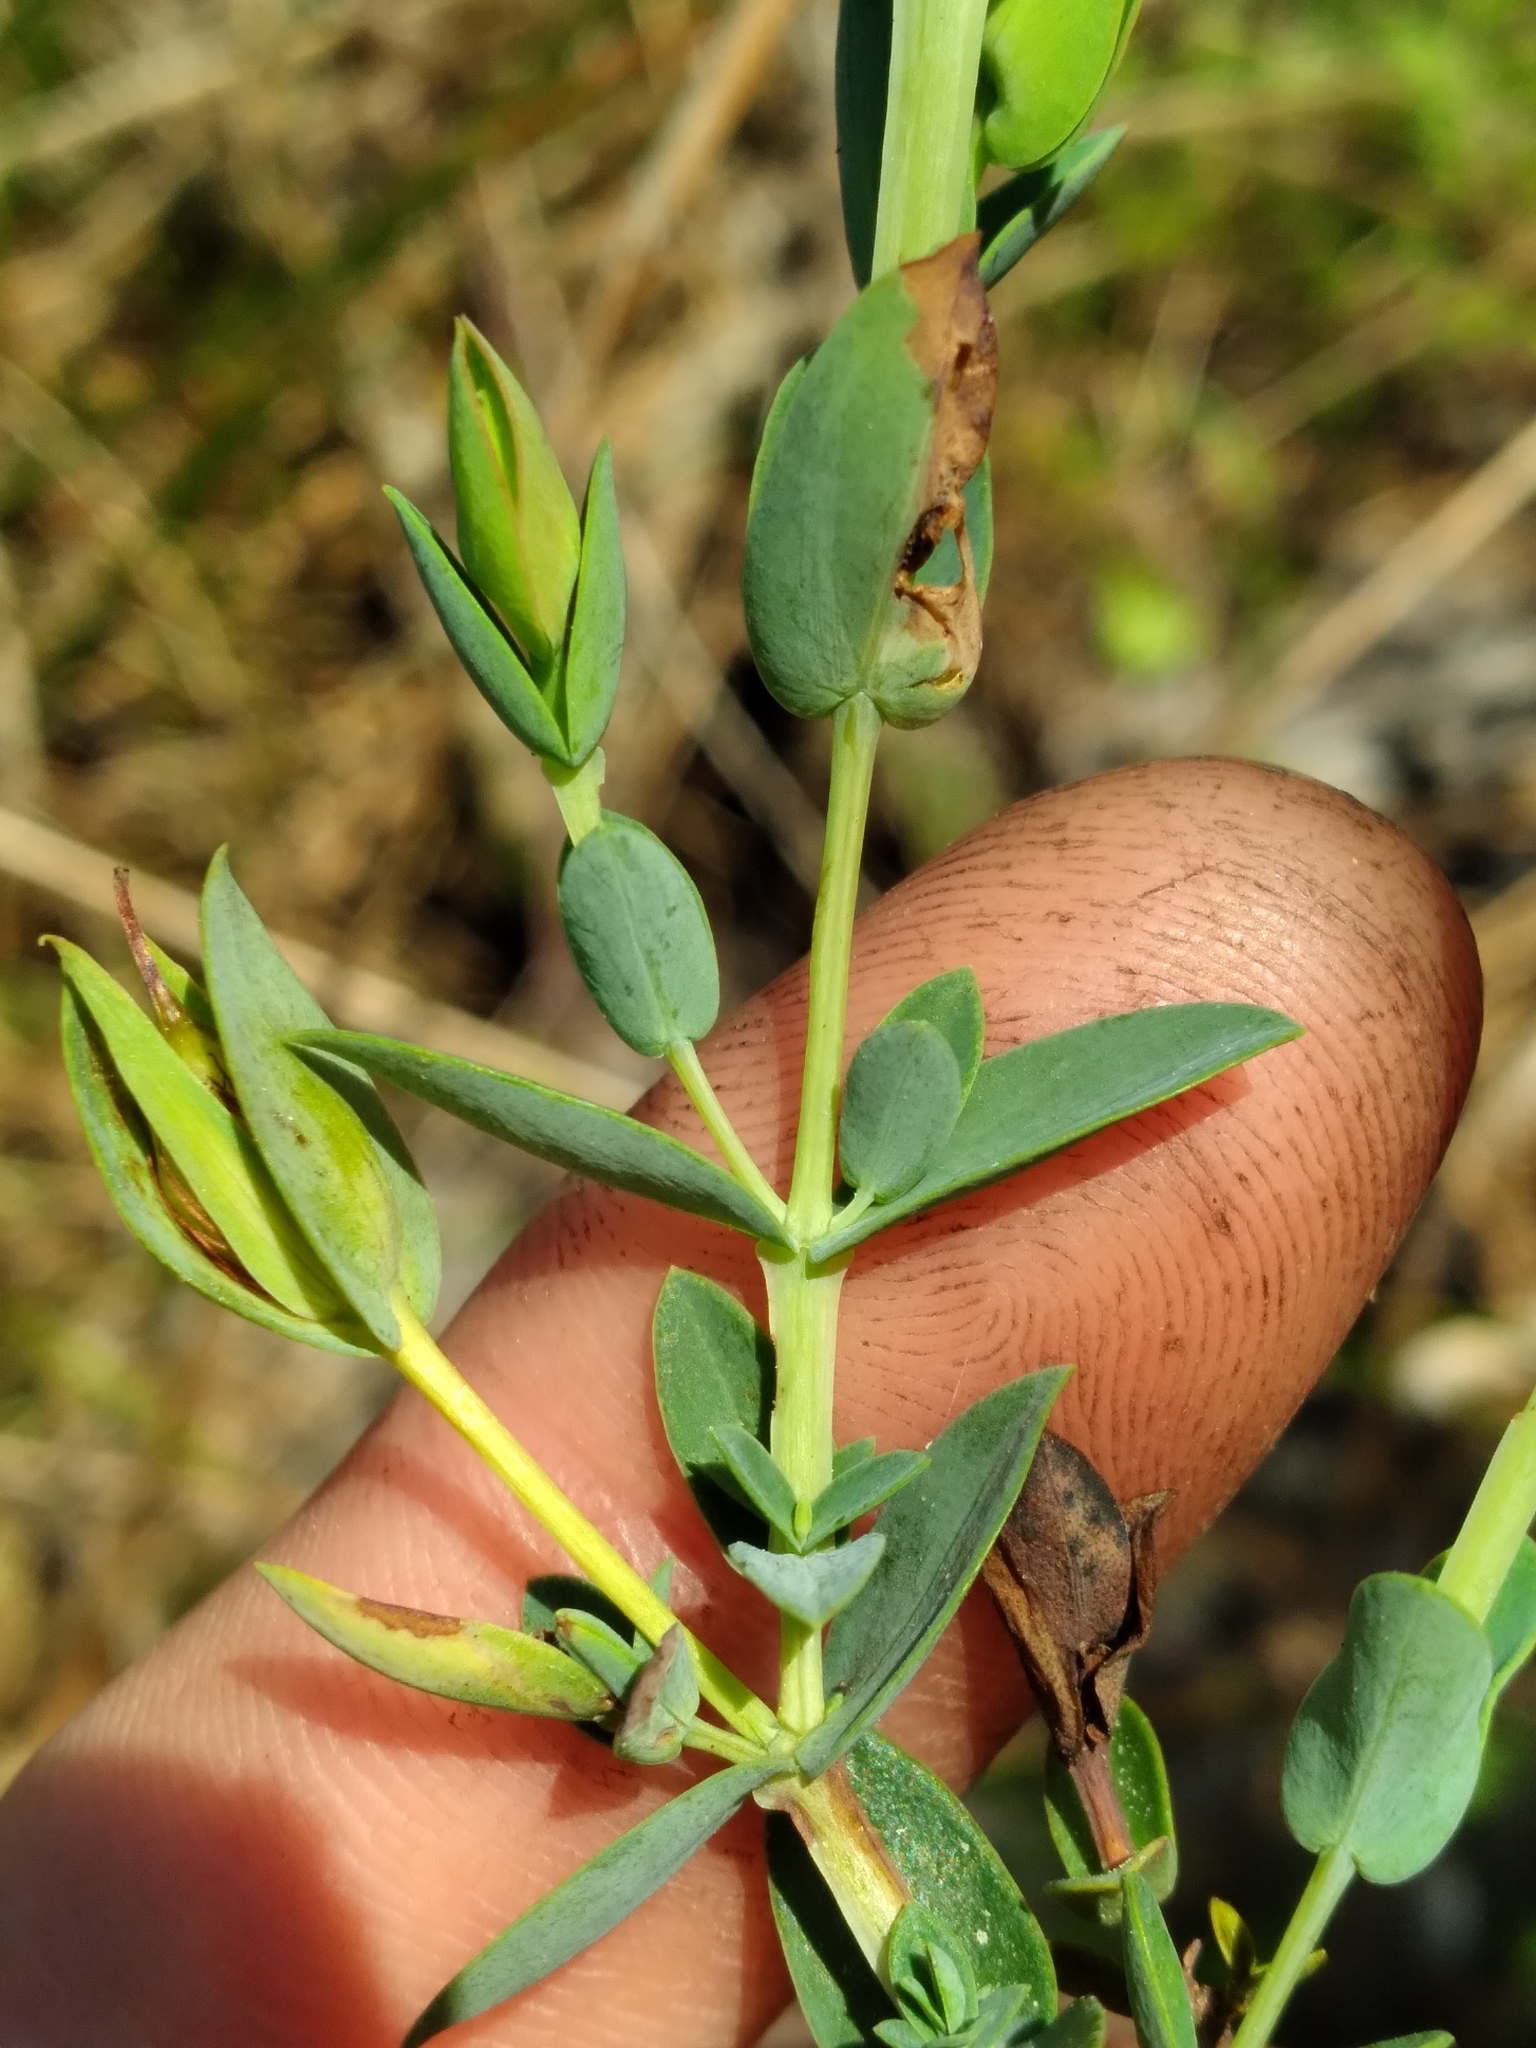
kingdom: Plantae
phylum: Tracheophyta
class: Magnoliopsida
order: Malpighiales
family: Hypericaceae
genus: Hypericum
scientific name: Hypericum tetrapetalum
